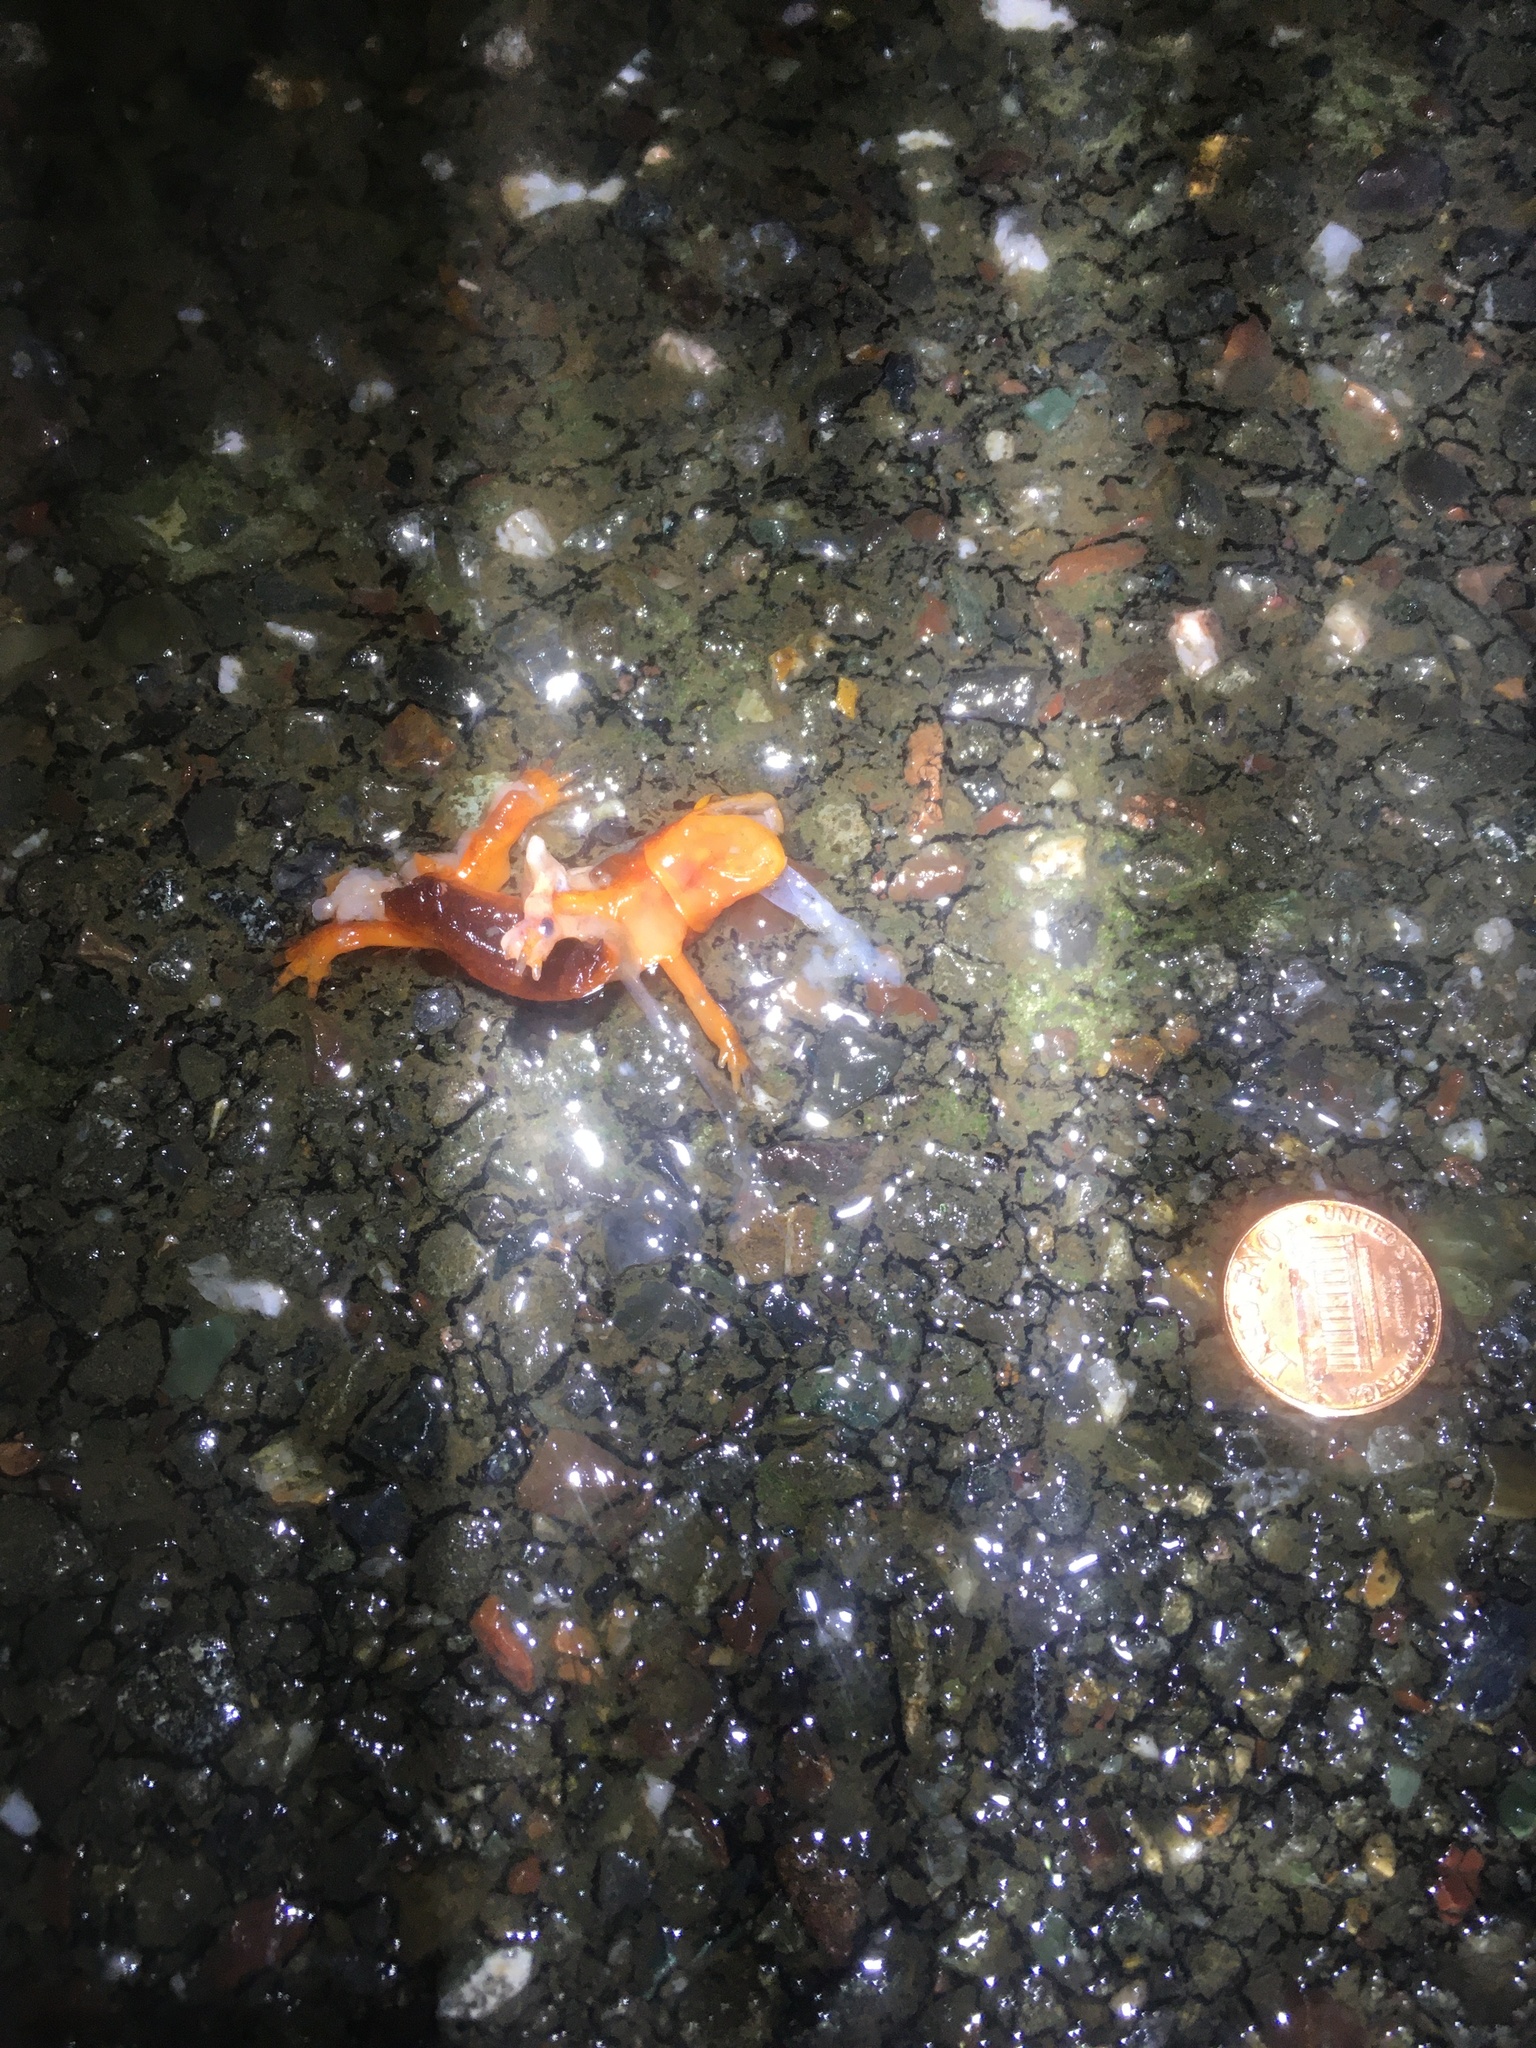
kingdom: Animalia
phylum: Chordata
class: Amphibia
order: Caudata
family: Salamandridae
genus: Taricha
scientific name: Taricha
